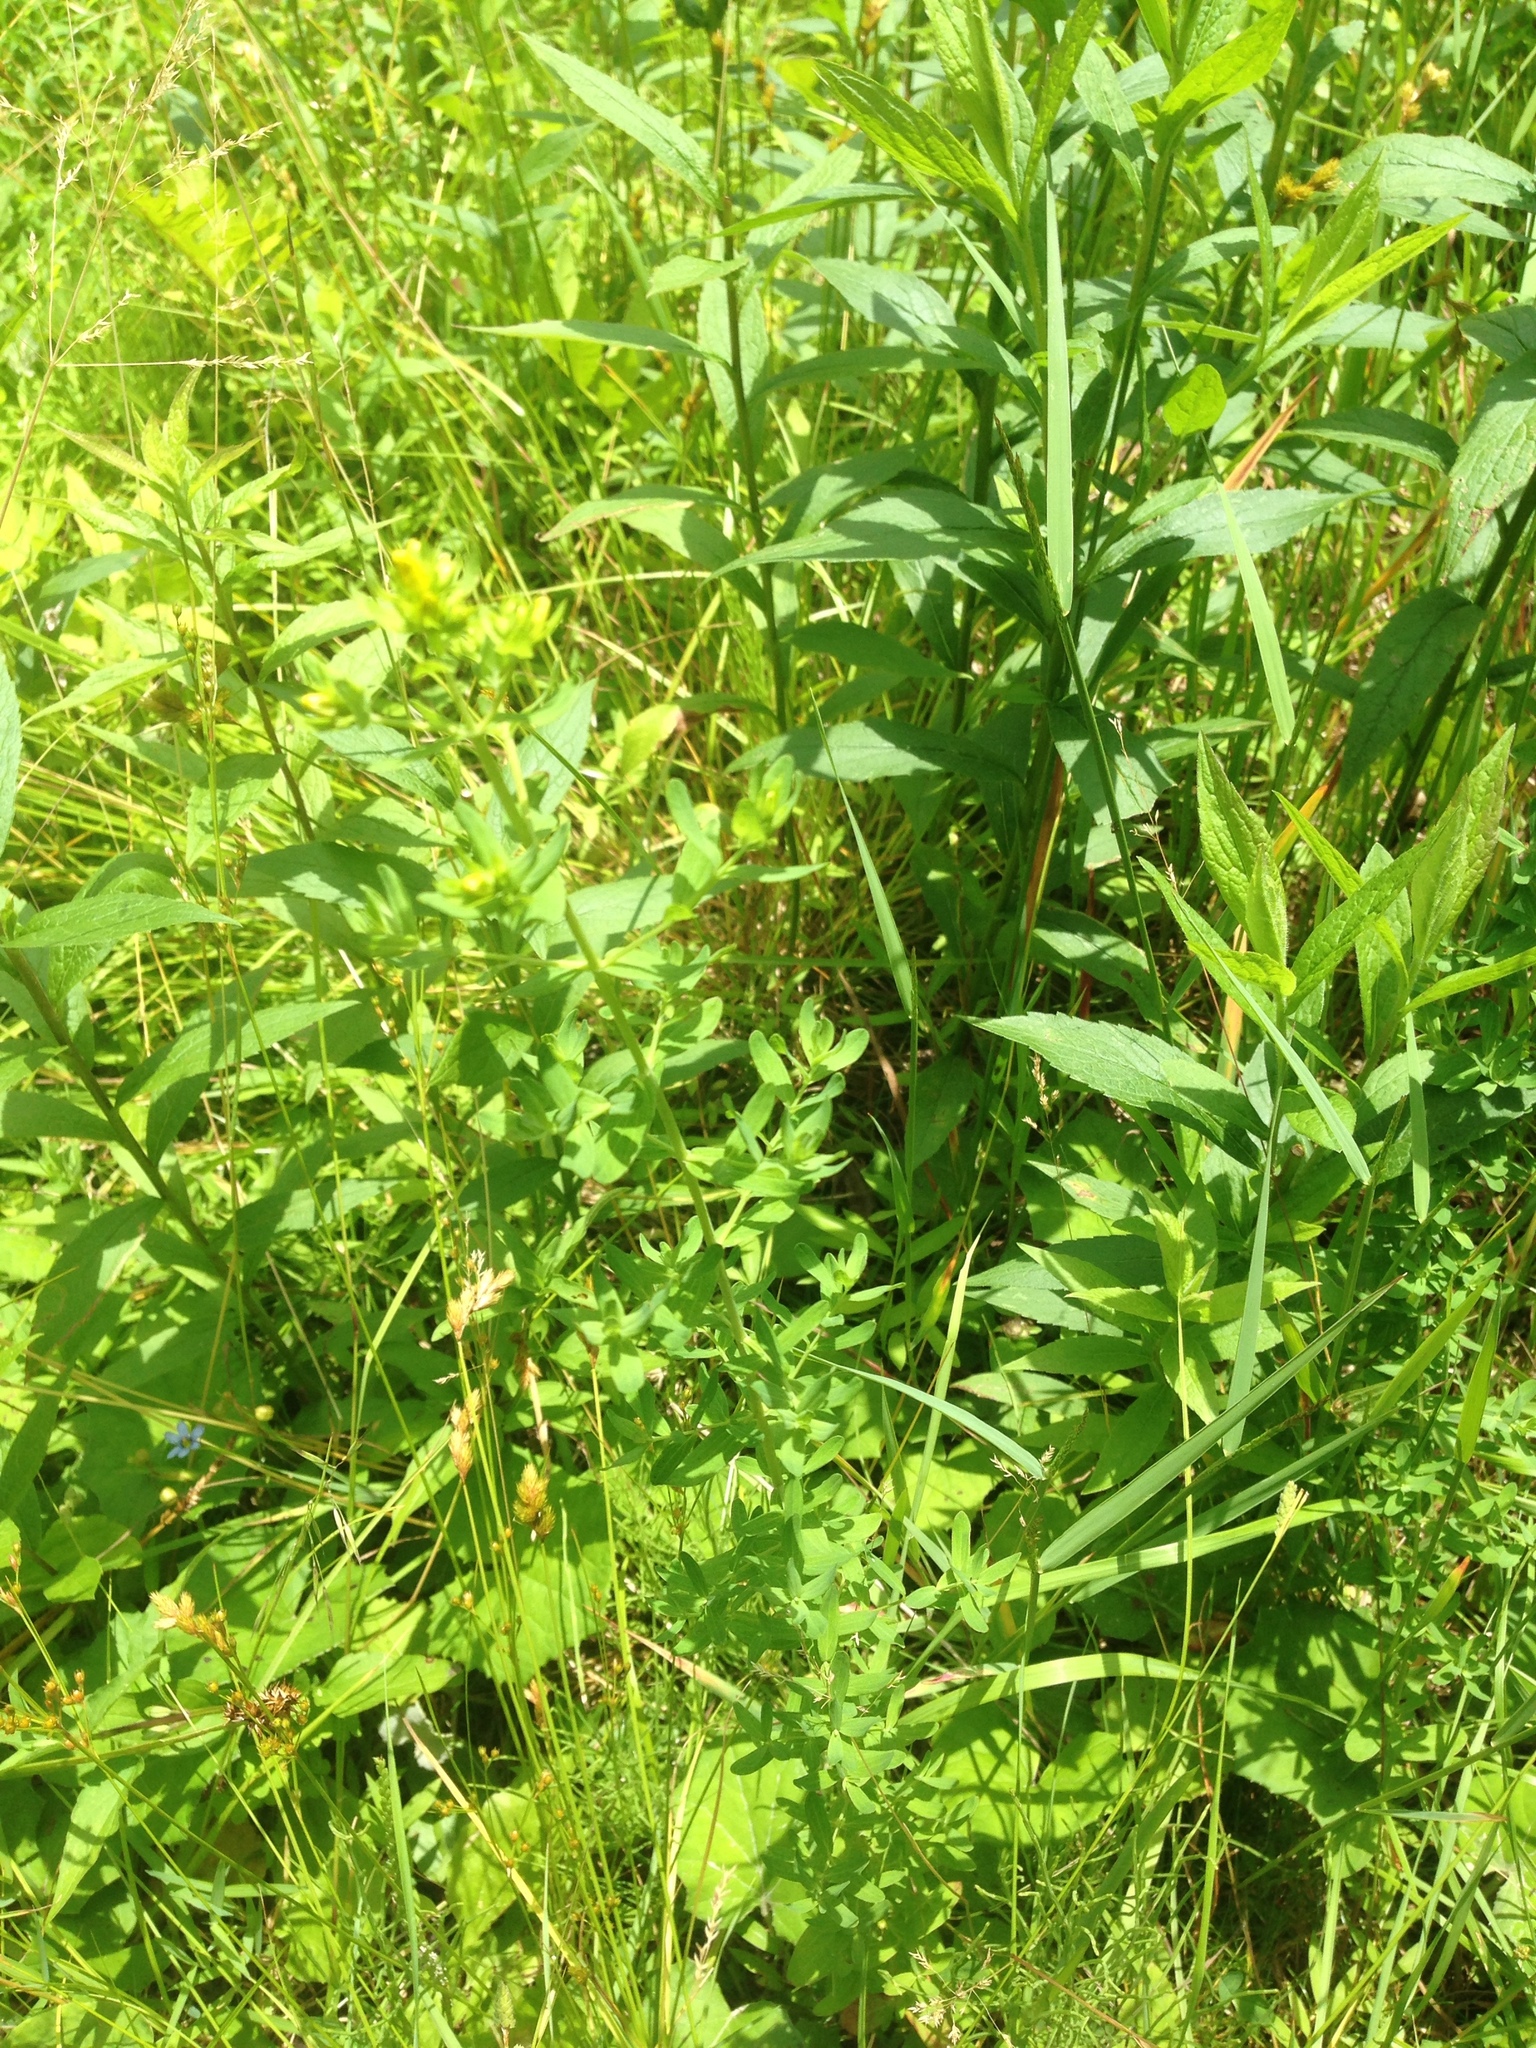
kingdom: Plantae
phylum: Tracheophyta
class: Magnoliopsida
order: Malpighiales
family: Hypericaceae
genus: Hypericum
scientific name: Hypericum perforatum
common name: Common st. johnswort
